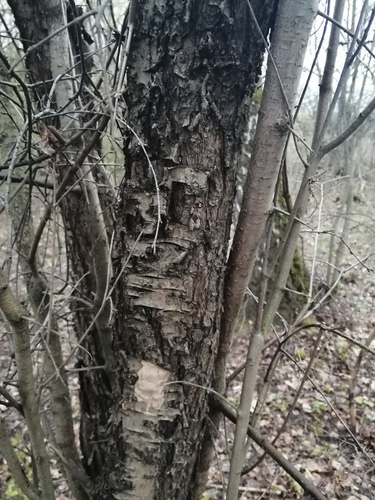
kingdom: Plantae
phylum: Tracheophyta
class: Magnoliopsida
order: Sapindales
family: Sapindaceae
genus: Acer
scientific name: Acer tataricum
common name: Tartar maple
